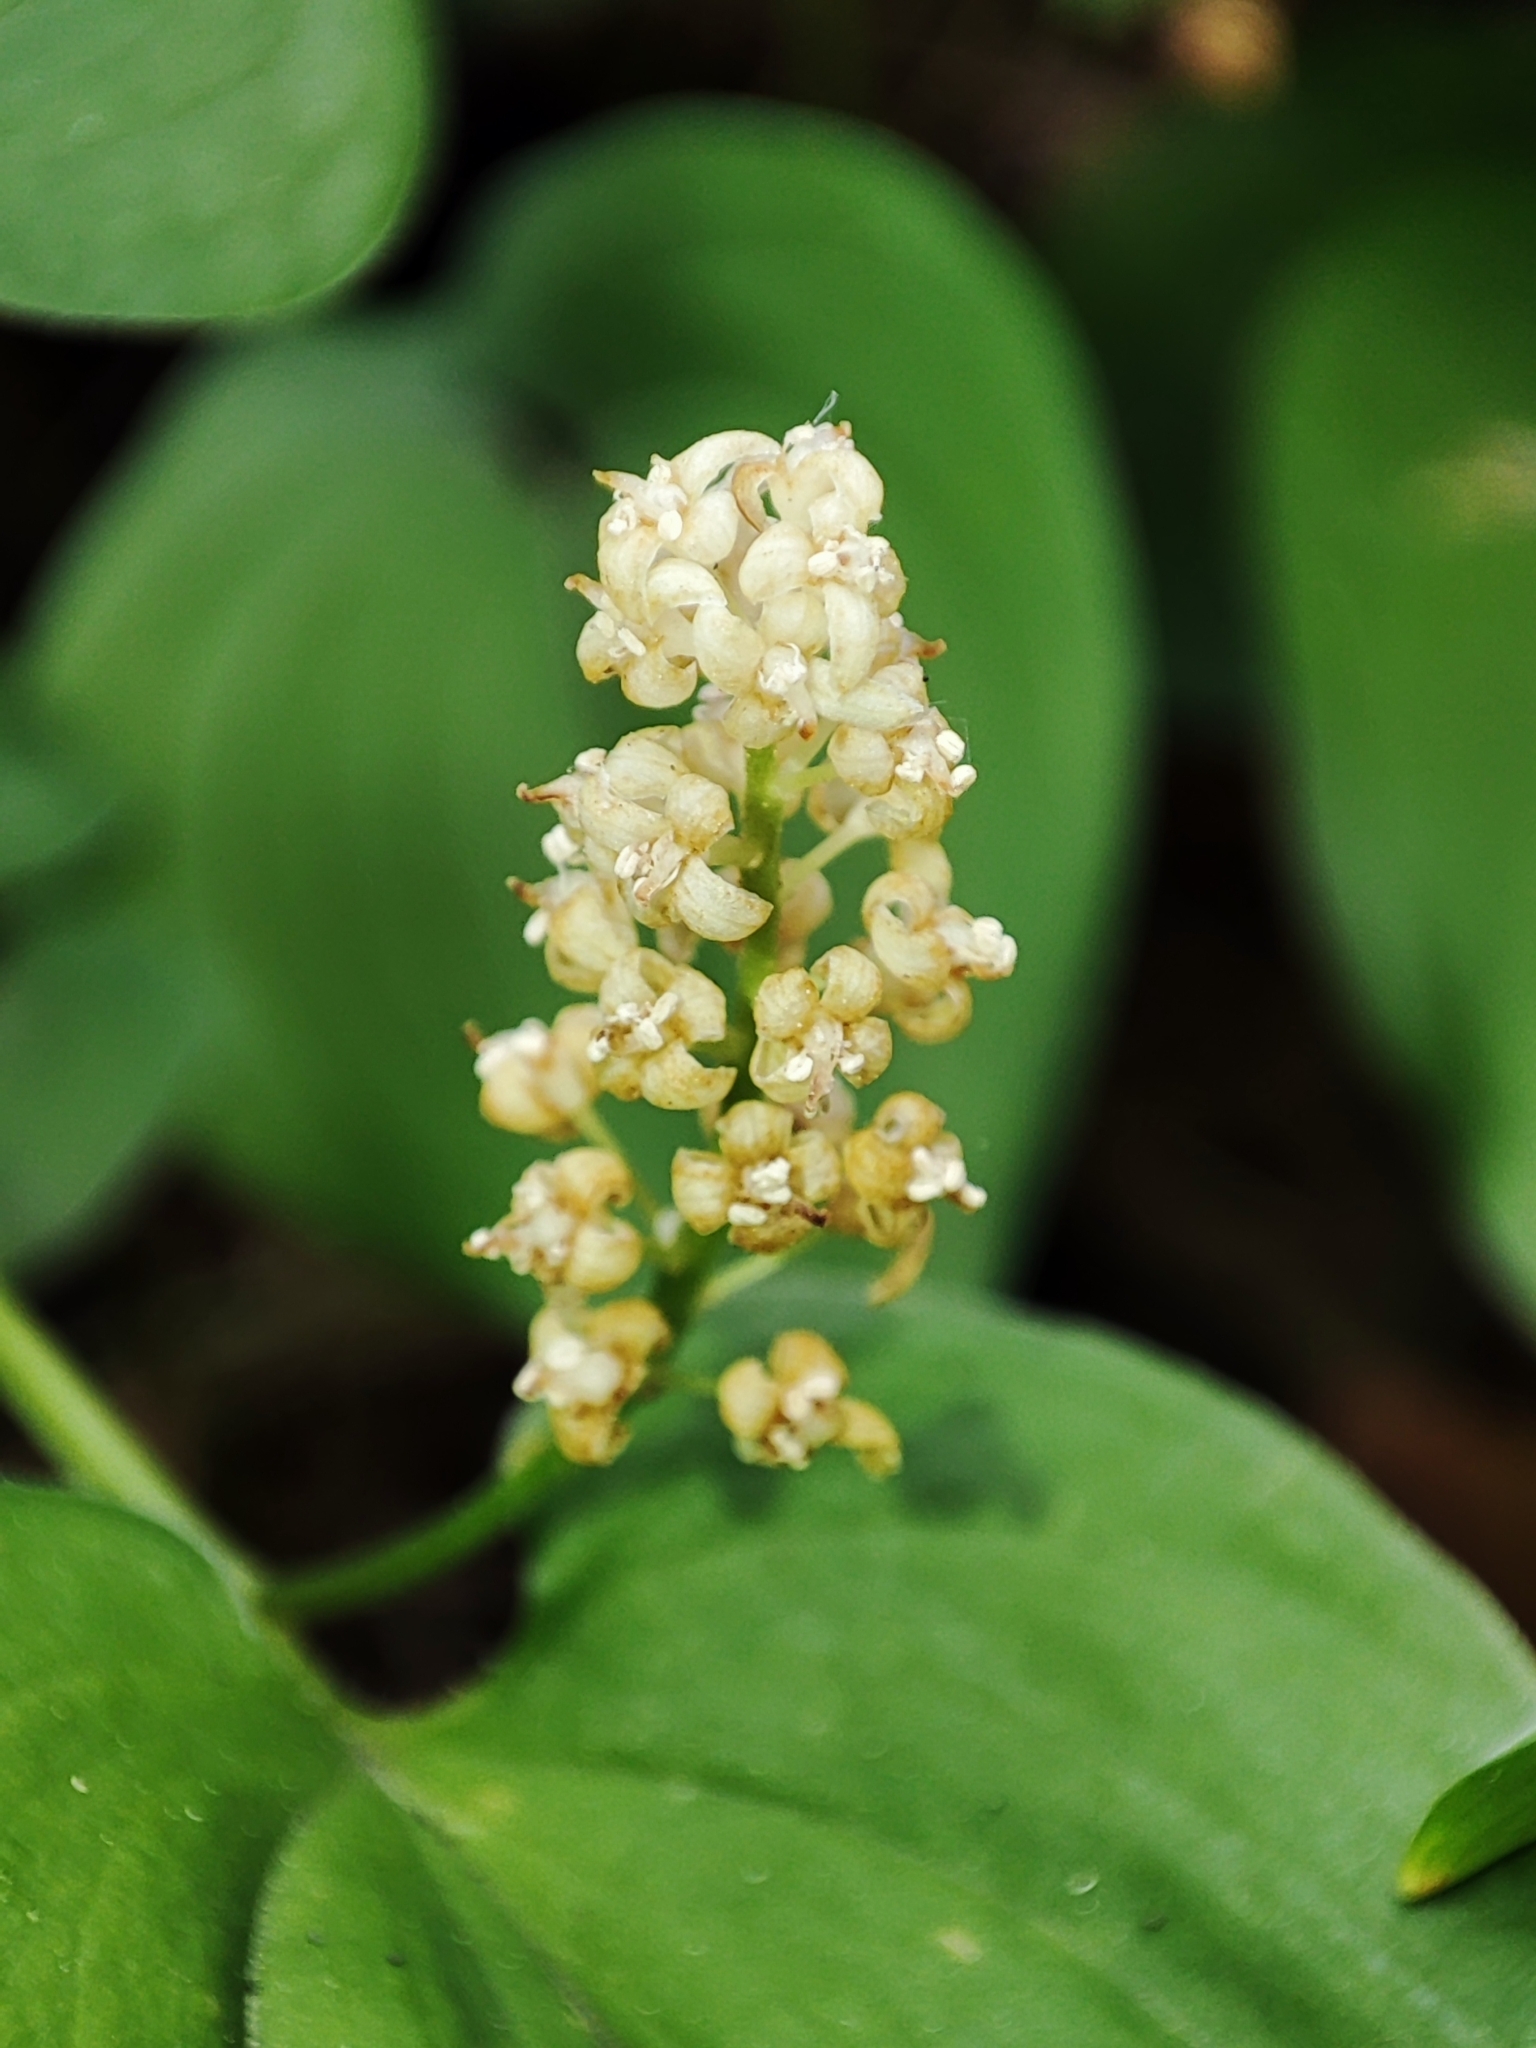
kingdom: Plantae
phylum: Tracheophyta
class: Liliopsida
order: Asparagales
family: Asparagaceae
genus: Maianthemum
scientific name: Maianthemum bifolium
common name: May lily
